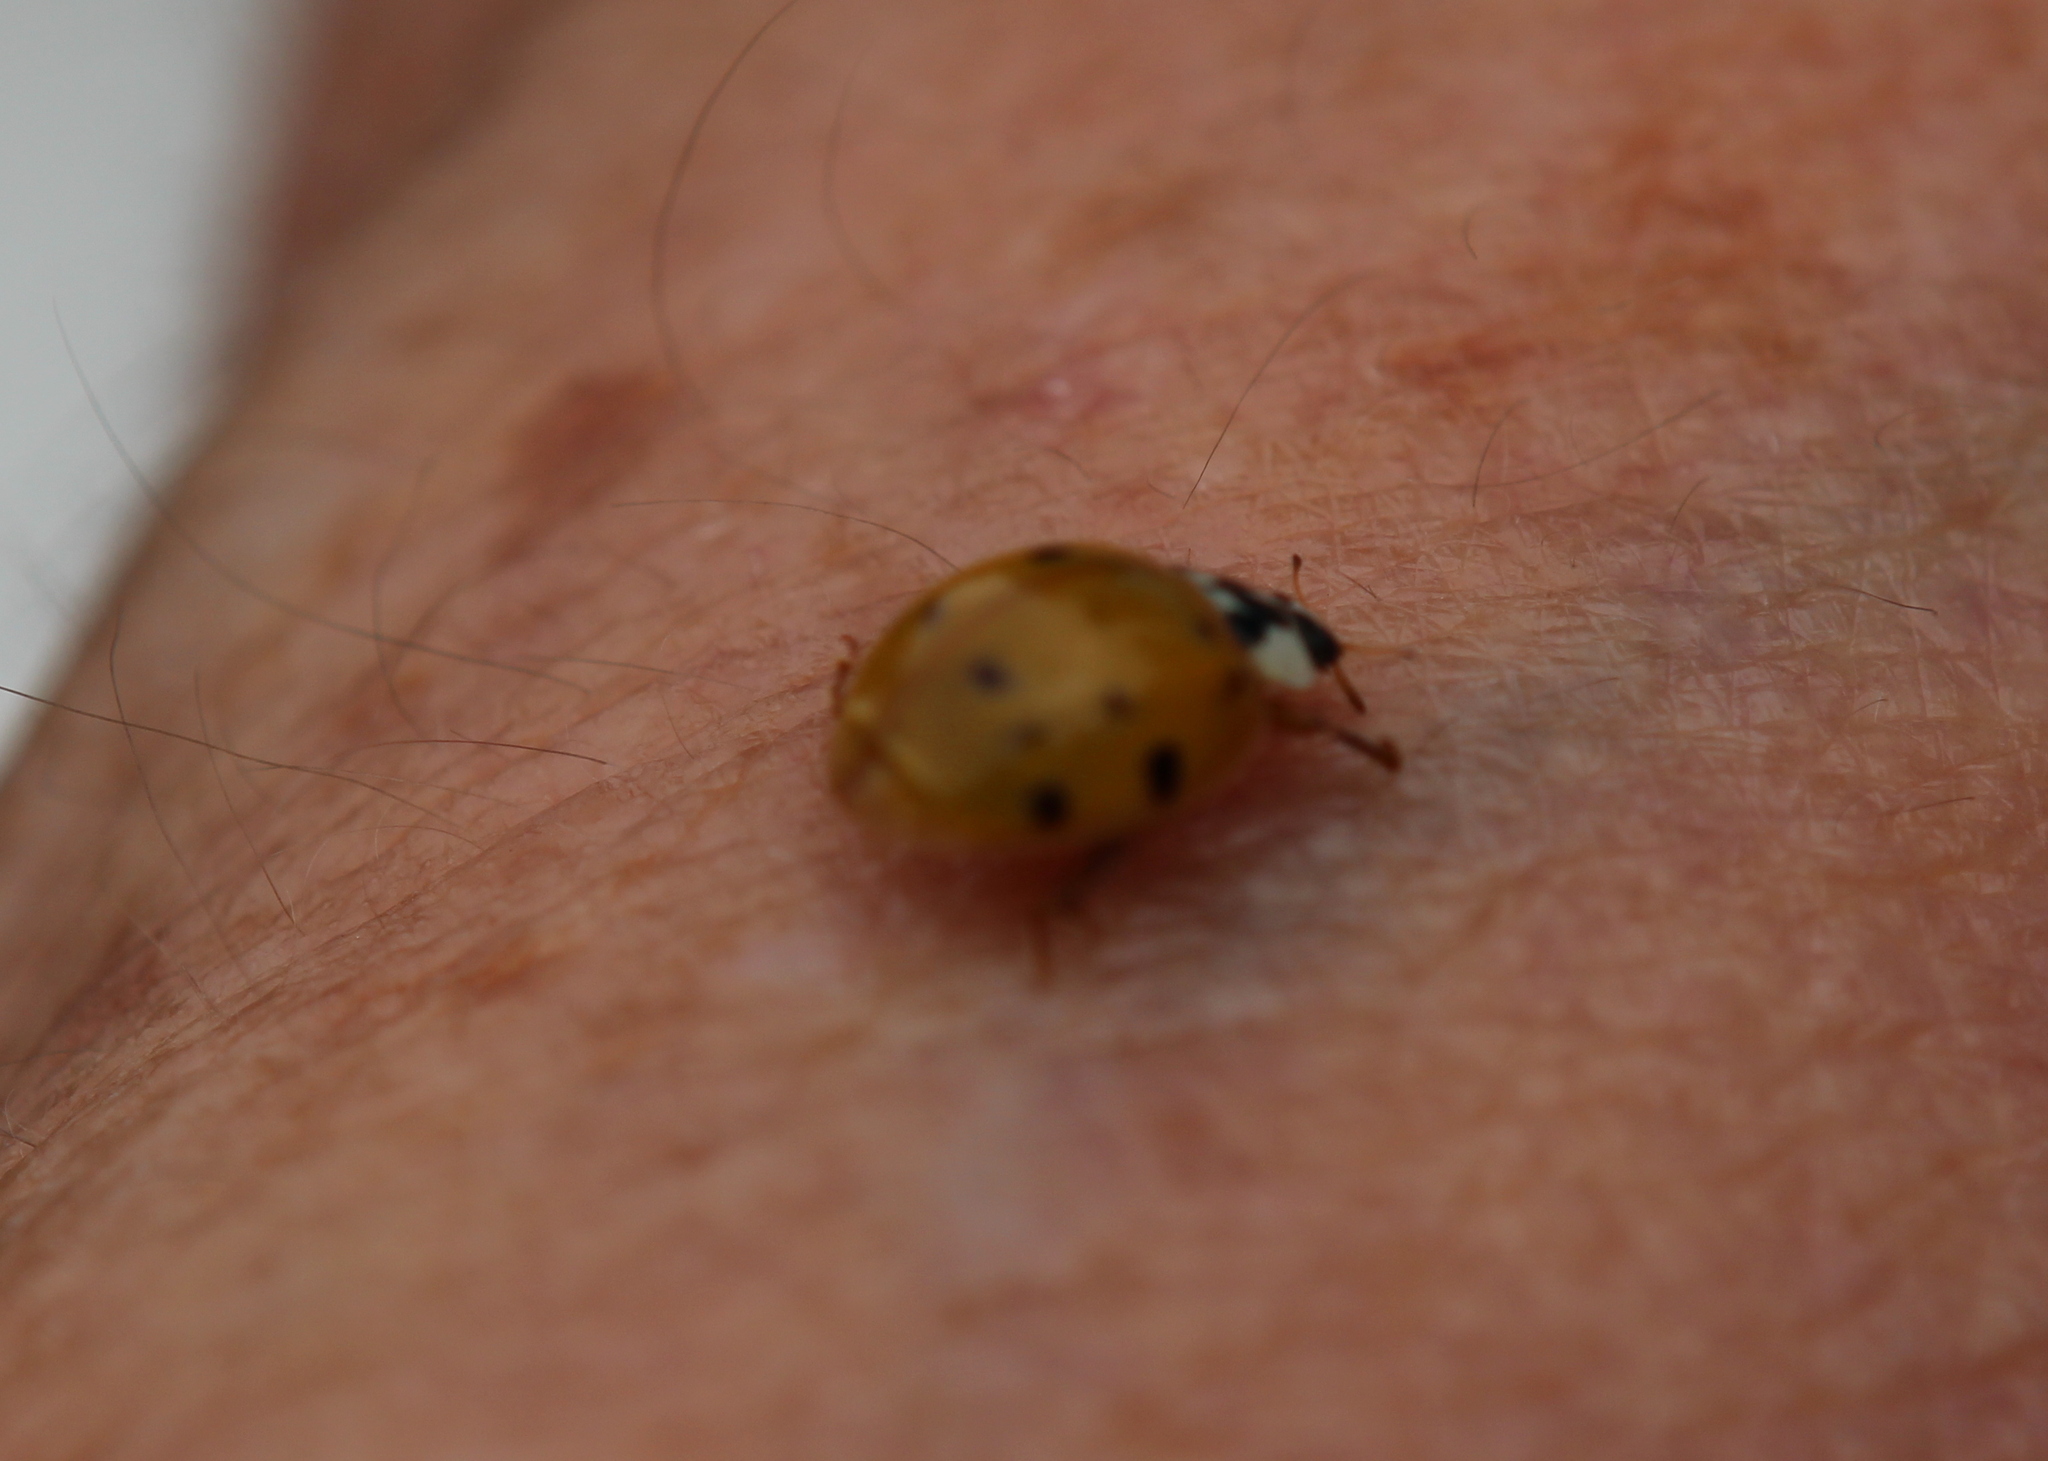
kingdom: Animalia
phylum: Arthropoda
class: Insecta
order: Coleoptera
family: Coccinellidae
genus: Harmonia
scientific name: Harmonia axyridis
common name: Harlequin ladybird
